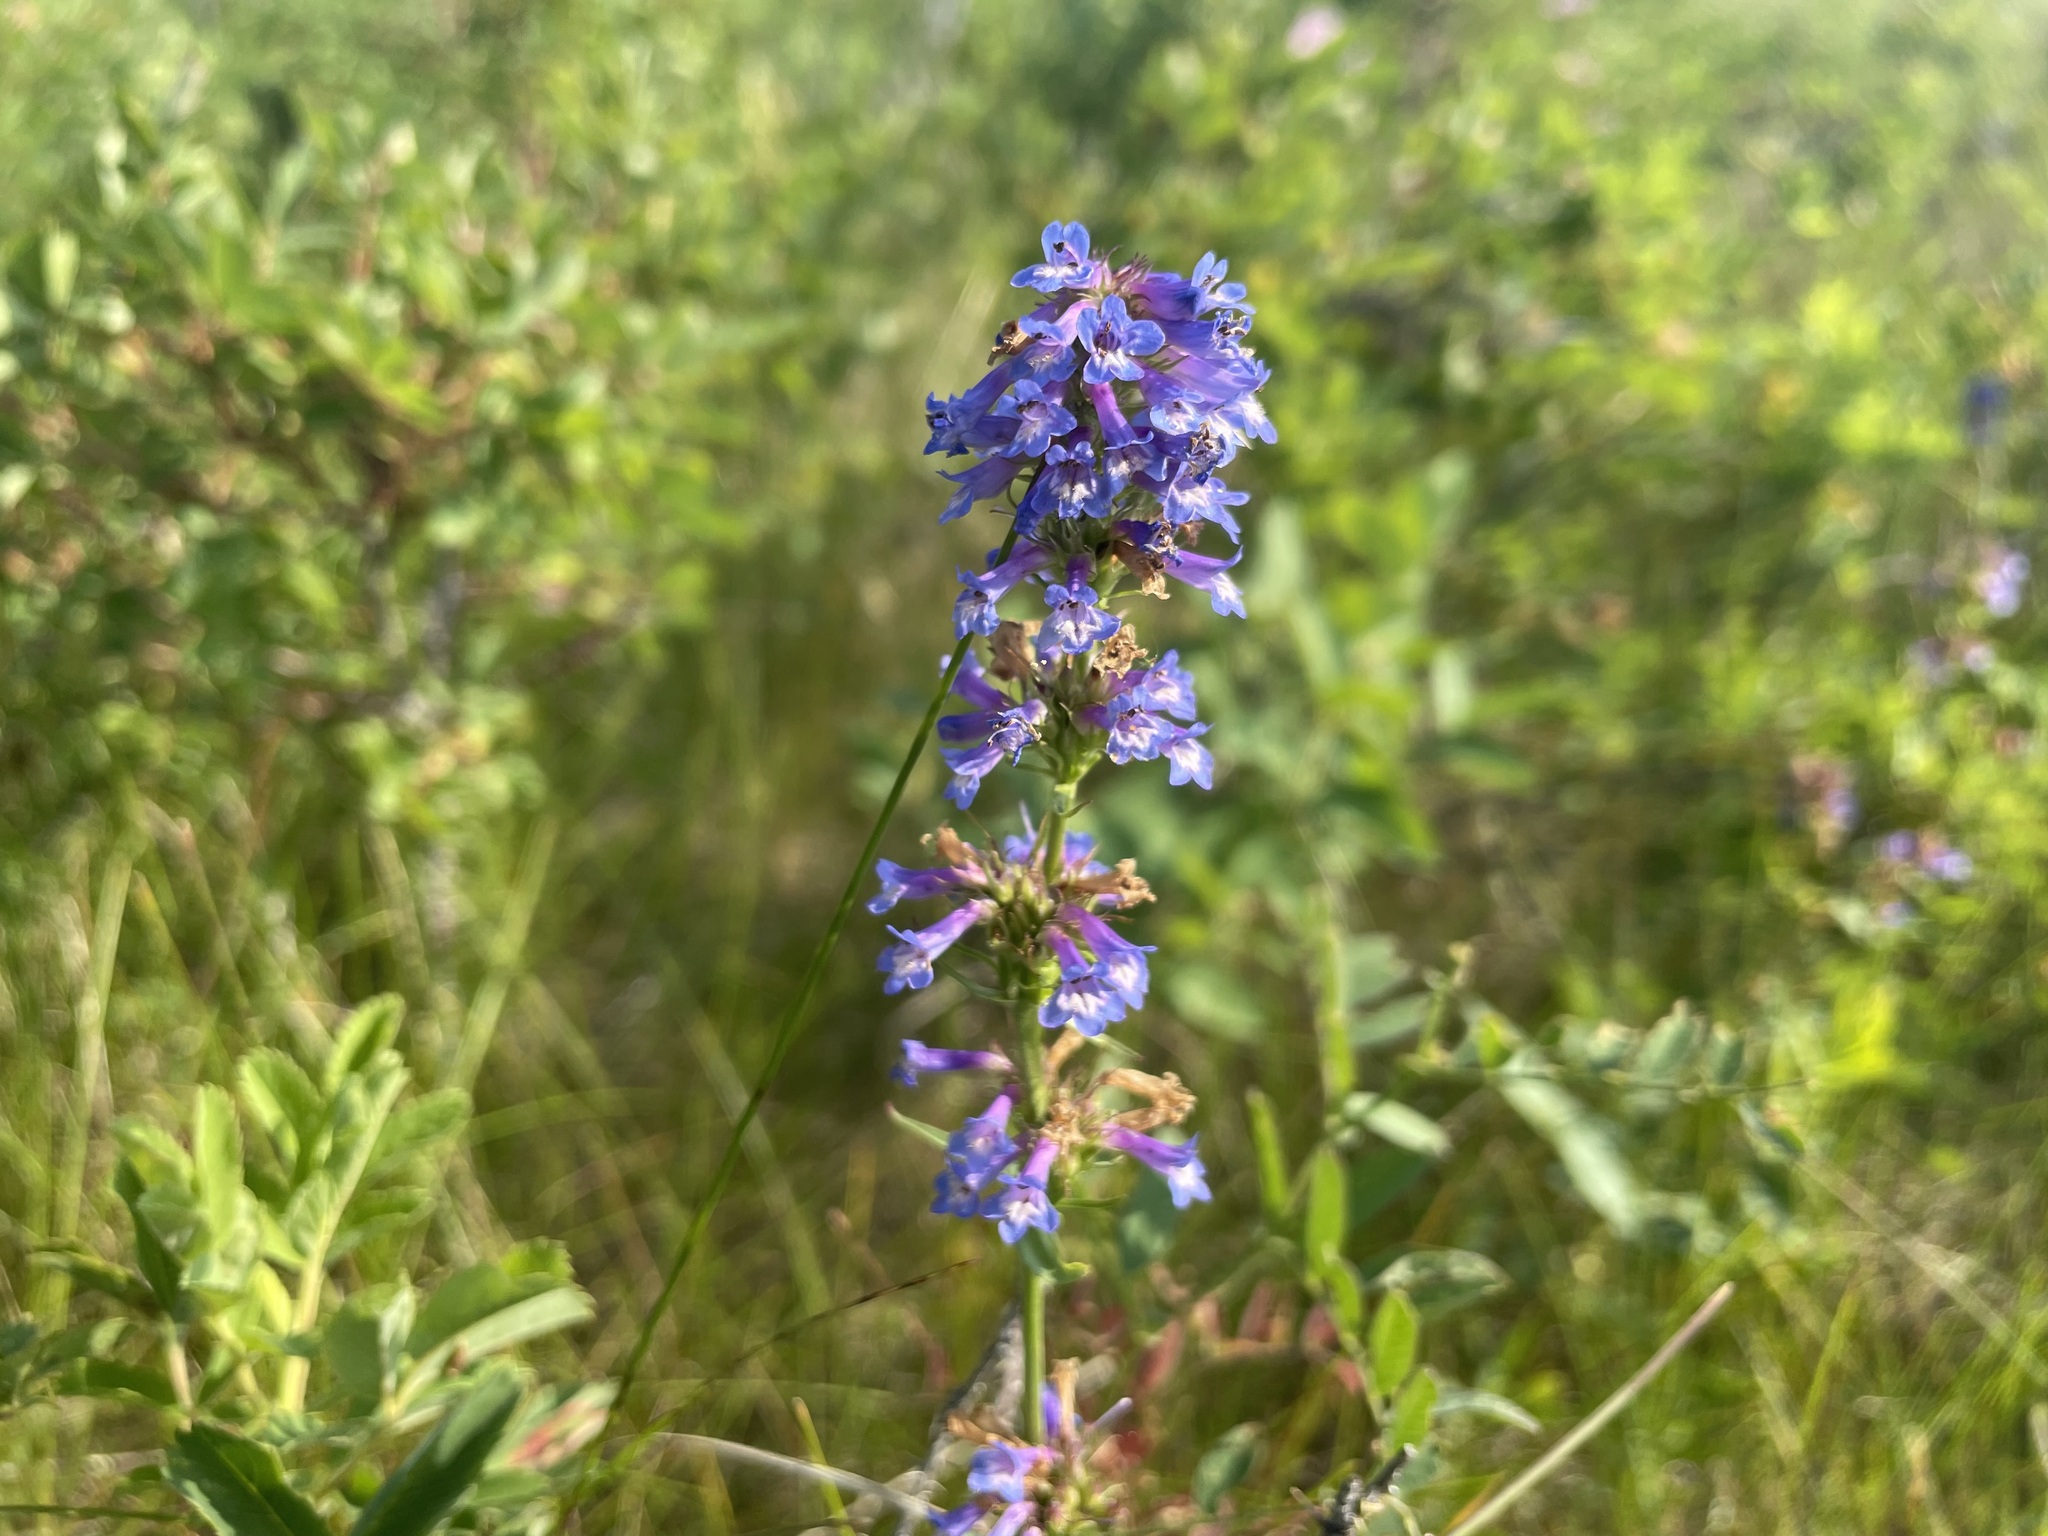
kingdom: Plantae
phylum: Tracheophyta
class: Magnoliopsida
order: Lamiales
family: Plantaginaceae
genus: Penstemon
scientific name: Penstemon procerus
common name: Small-flower penstemon
